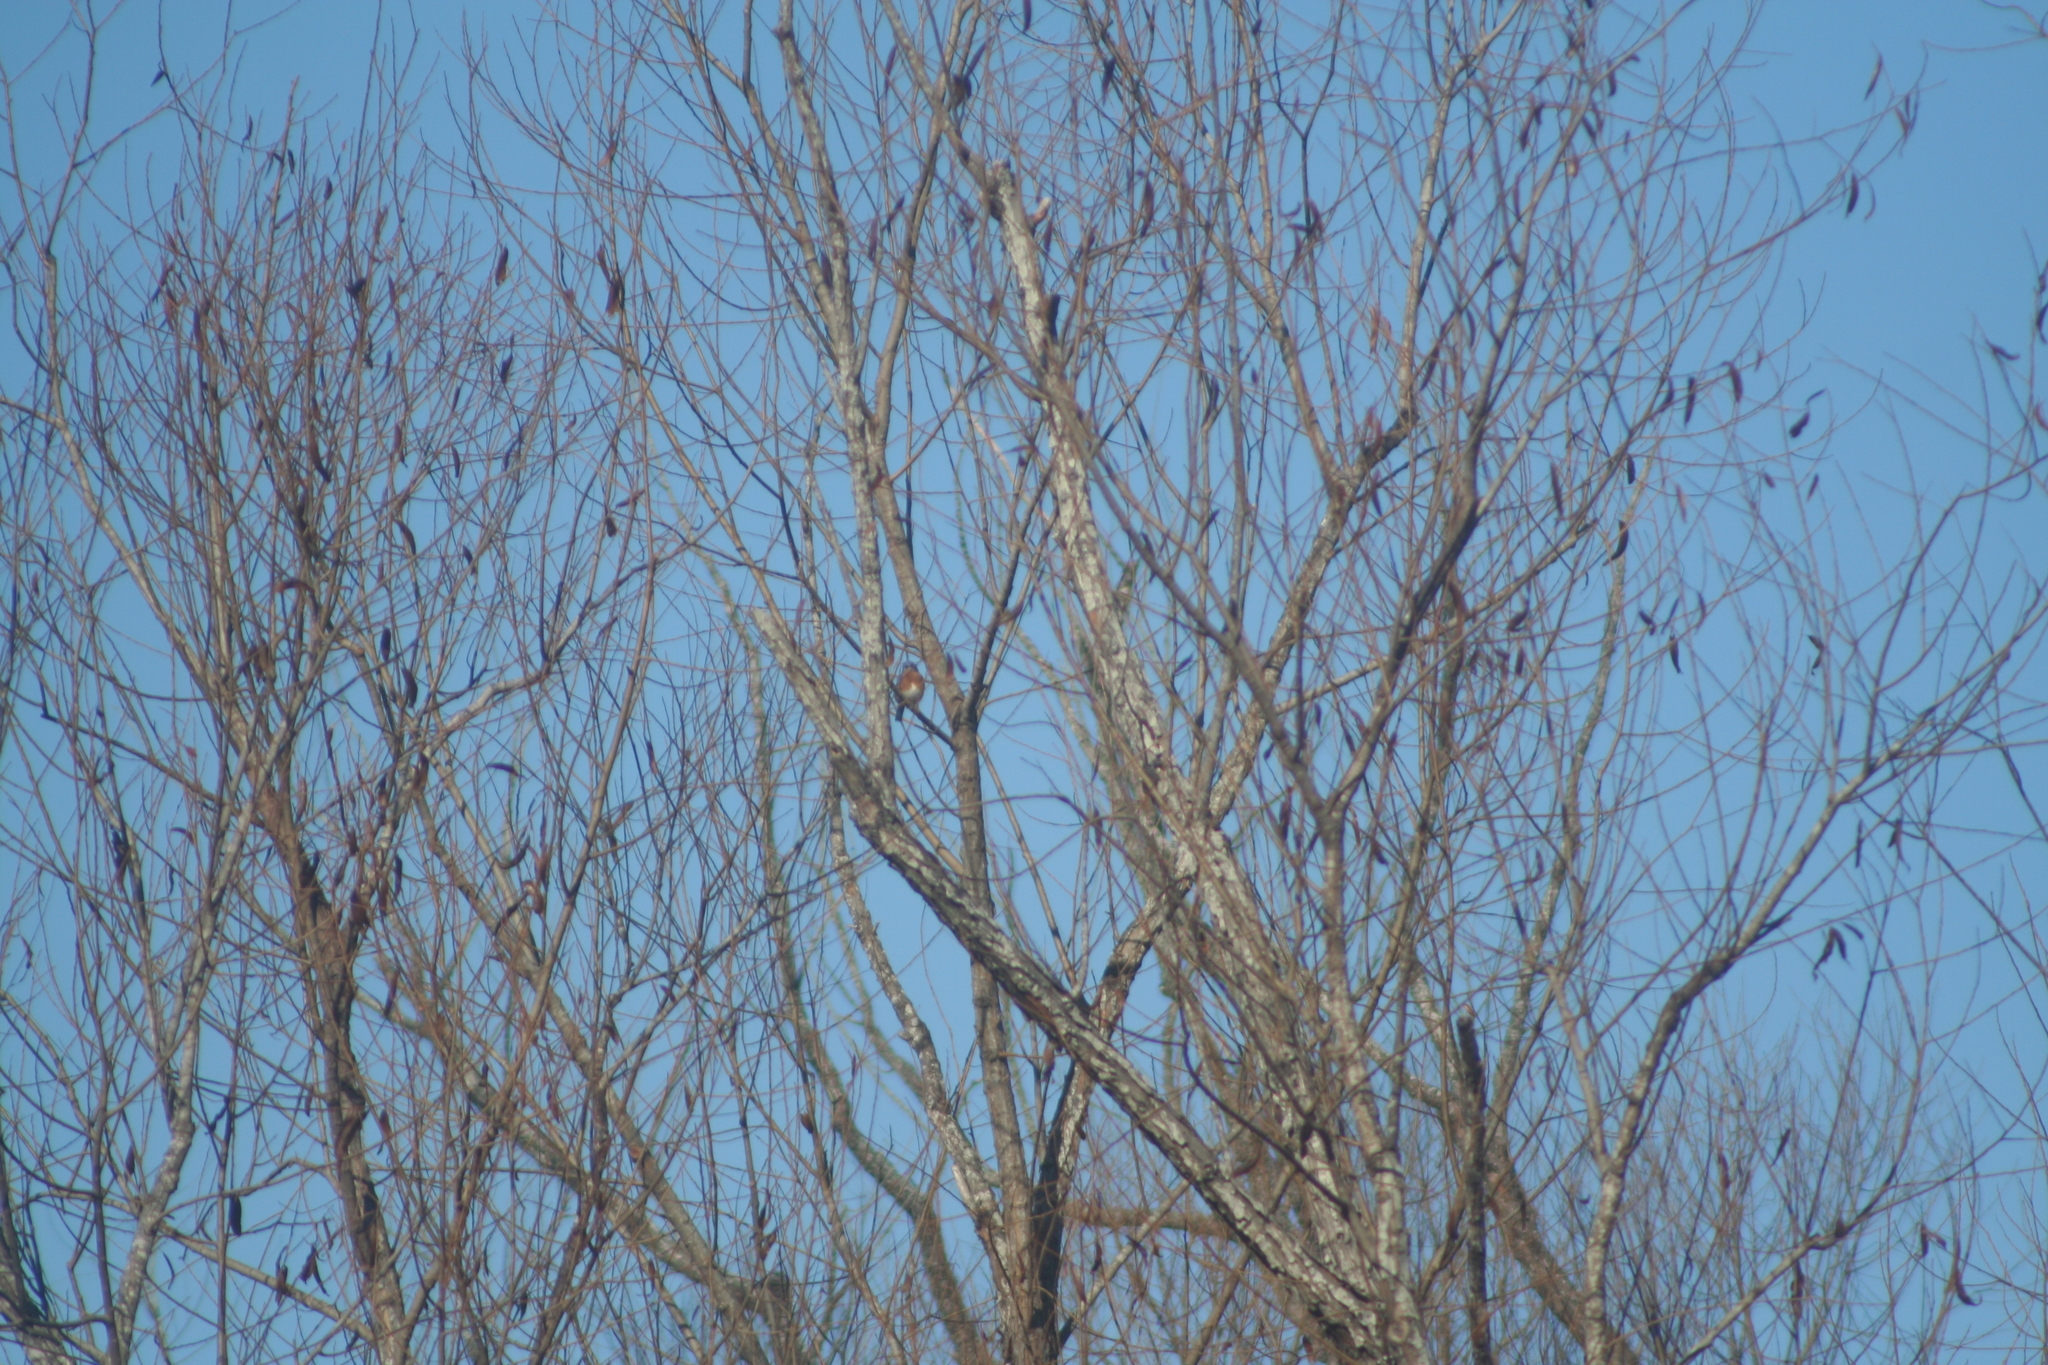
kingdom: Animalia
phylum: Chordata
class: Aves
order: Passeriformes
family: Turdidae
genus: Sialia
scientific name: Sialia sialis
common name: Eastern bluebird
